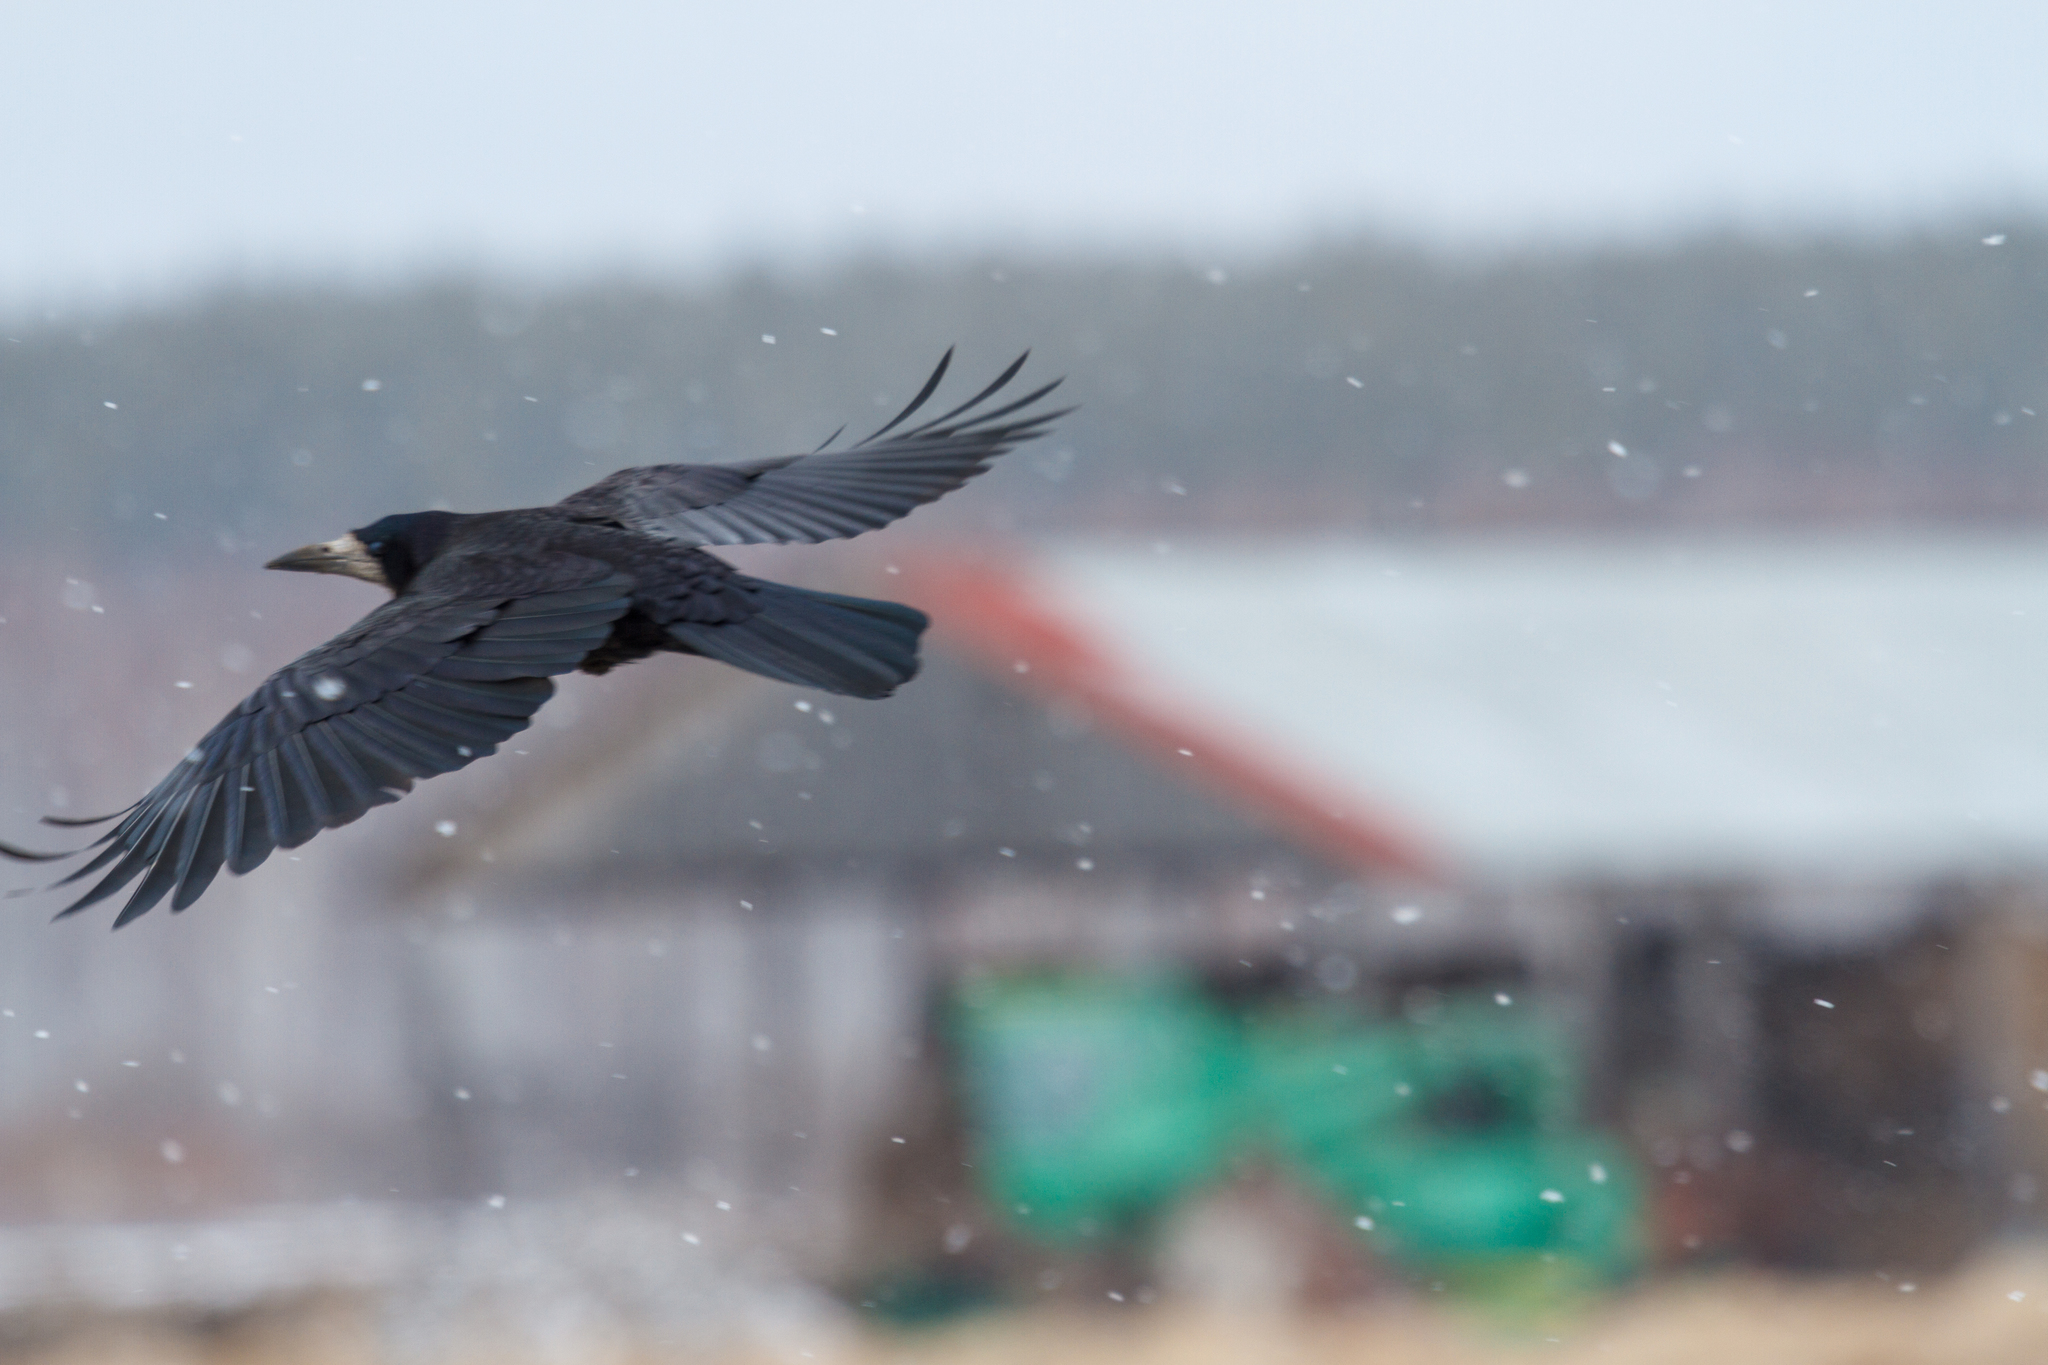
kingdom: Animalia
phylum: Chordata
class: Aves
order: Passeriformes
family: Corvidae
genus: Corvus
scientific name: Corvus frugilegus
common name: Rook
